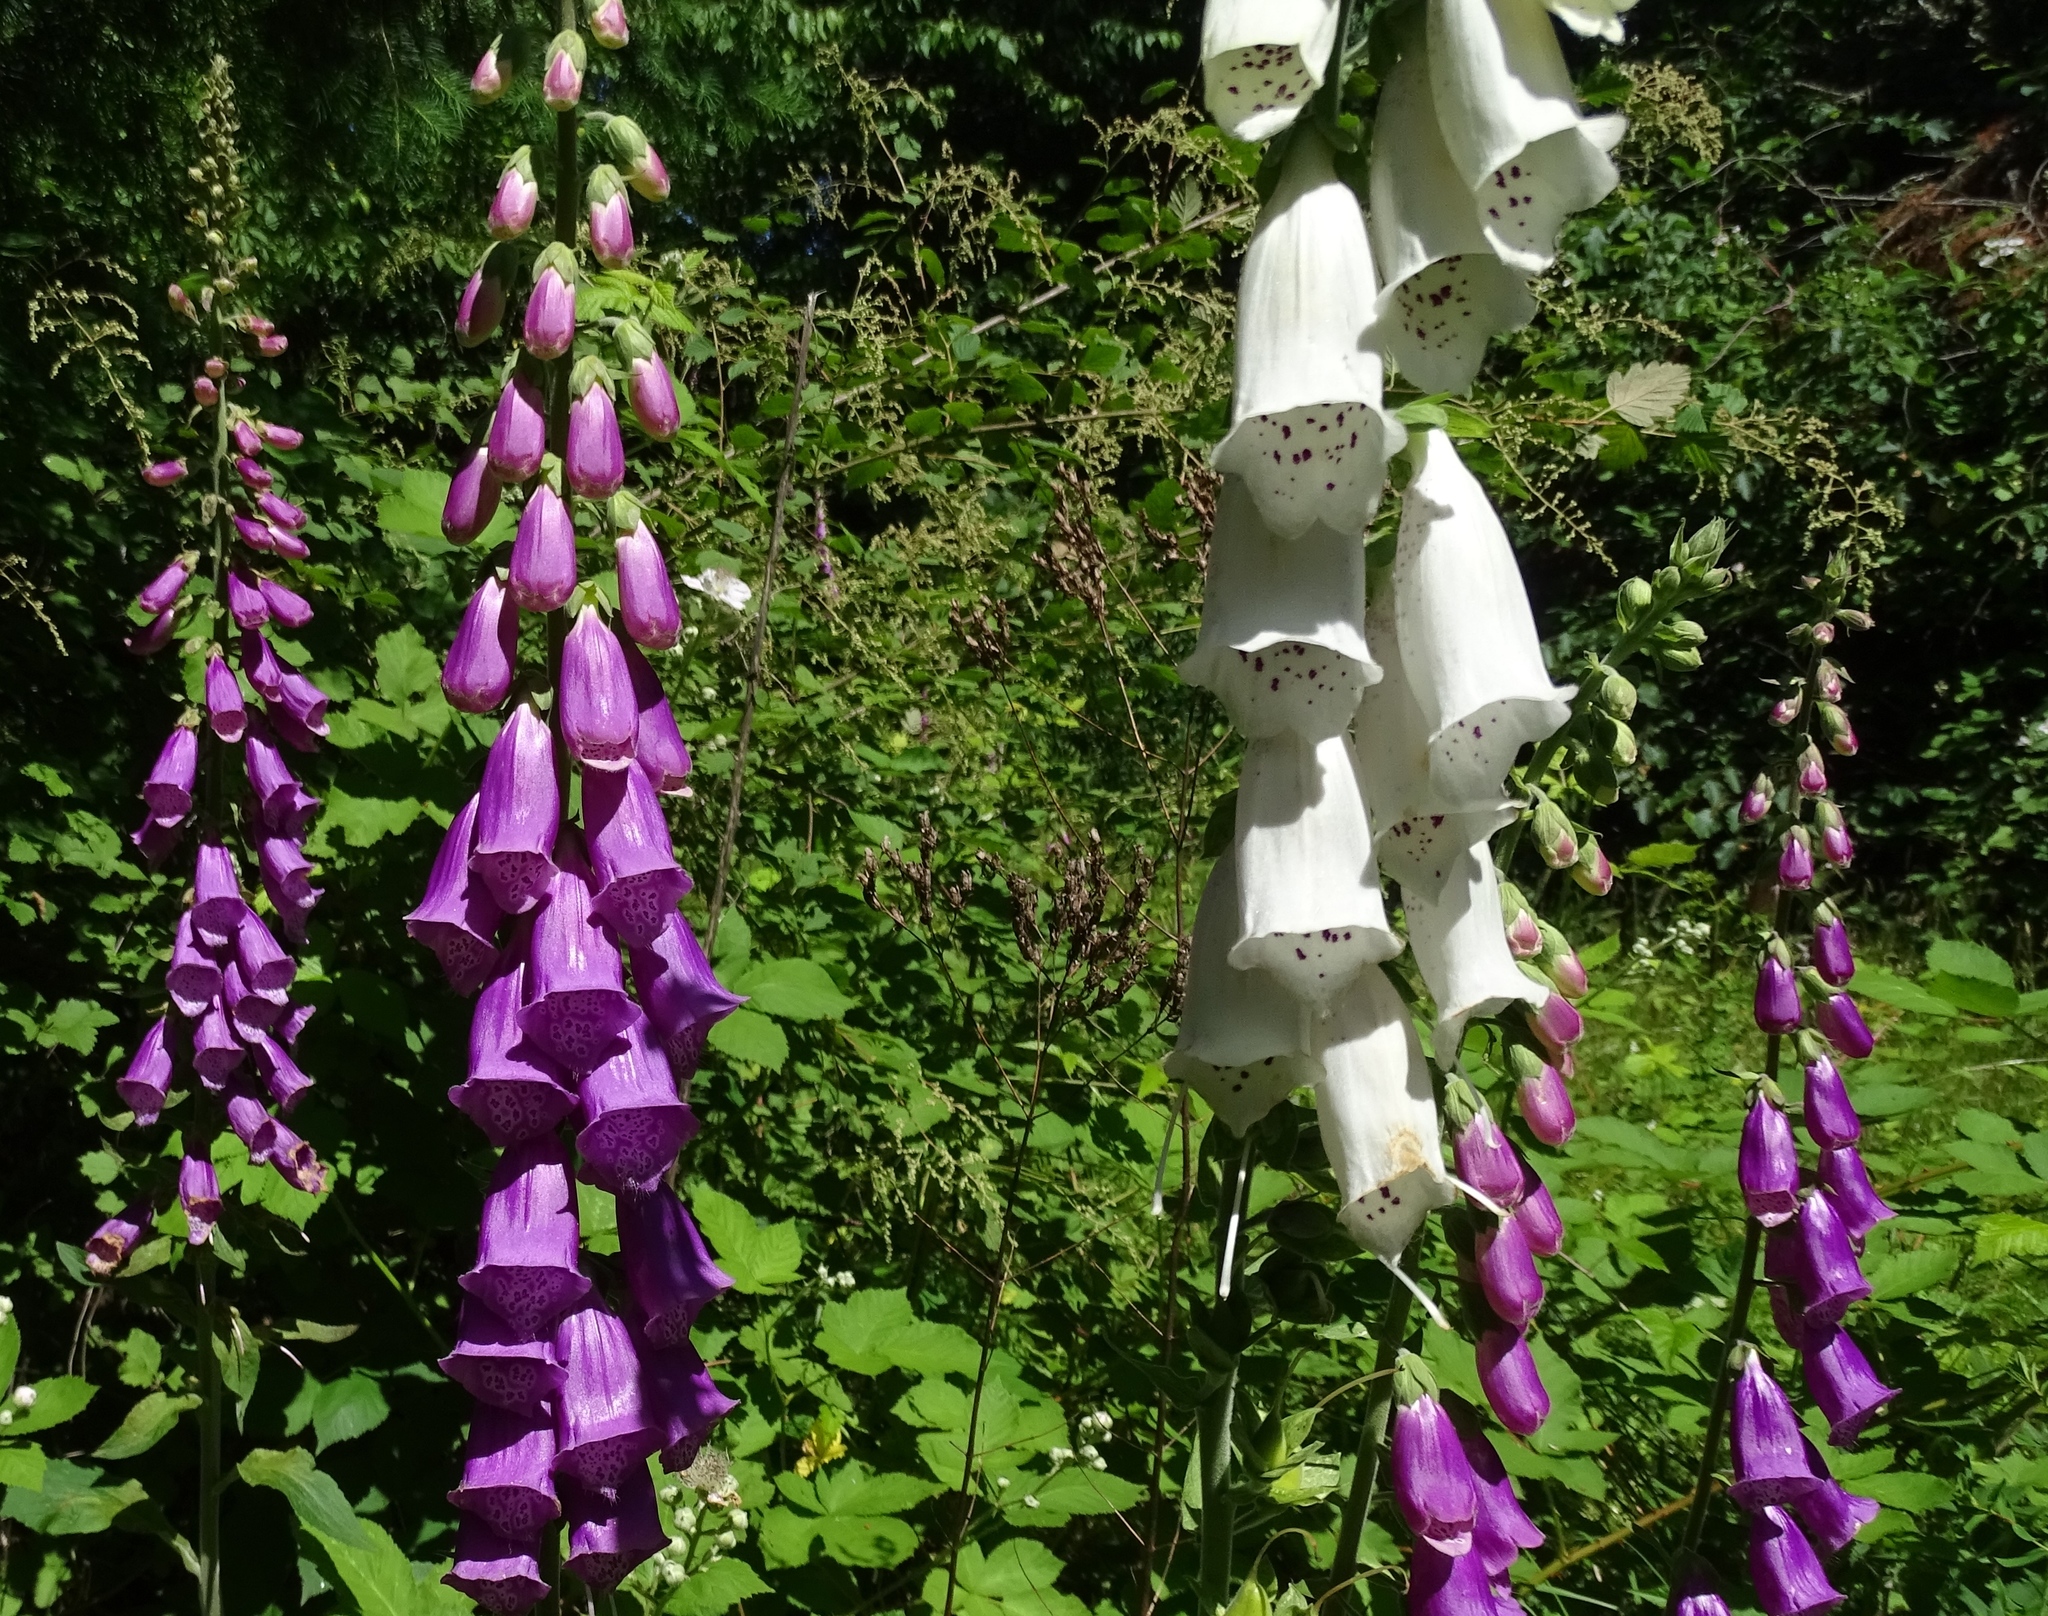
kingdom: Plantae
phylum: Tracheophyta
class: Magnoliopsida
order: Lamiales
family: Plantaginaceae
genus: Digitalis
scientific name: Digitalis purpurea
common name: Foxglove
